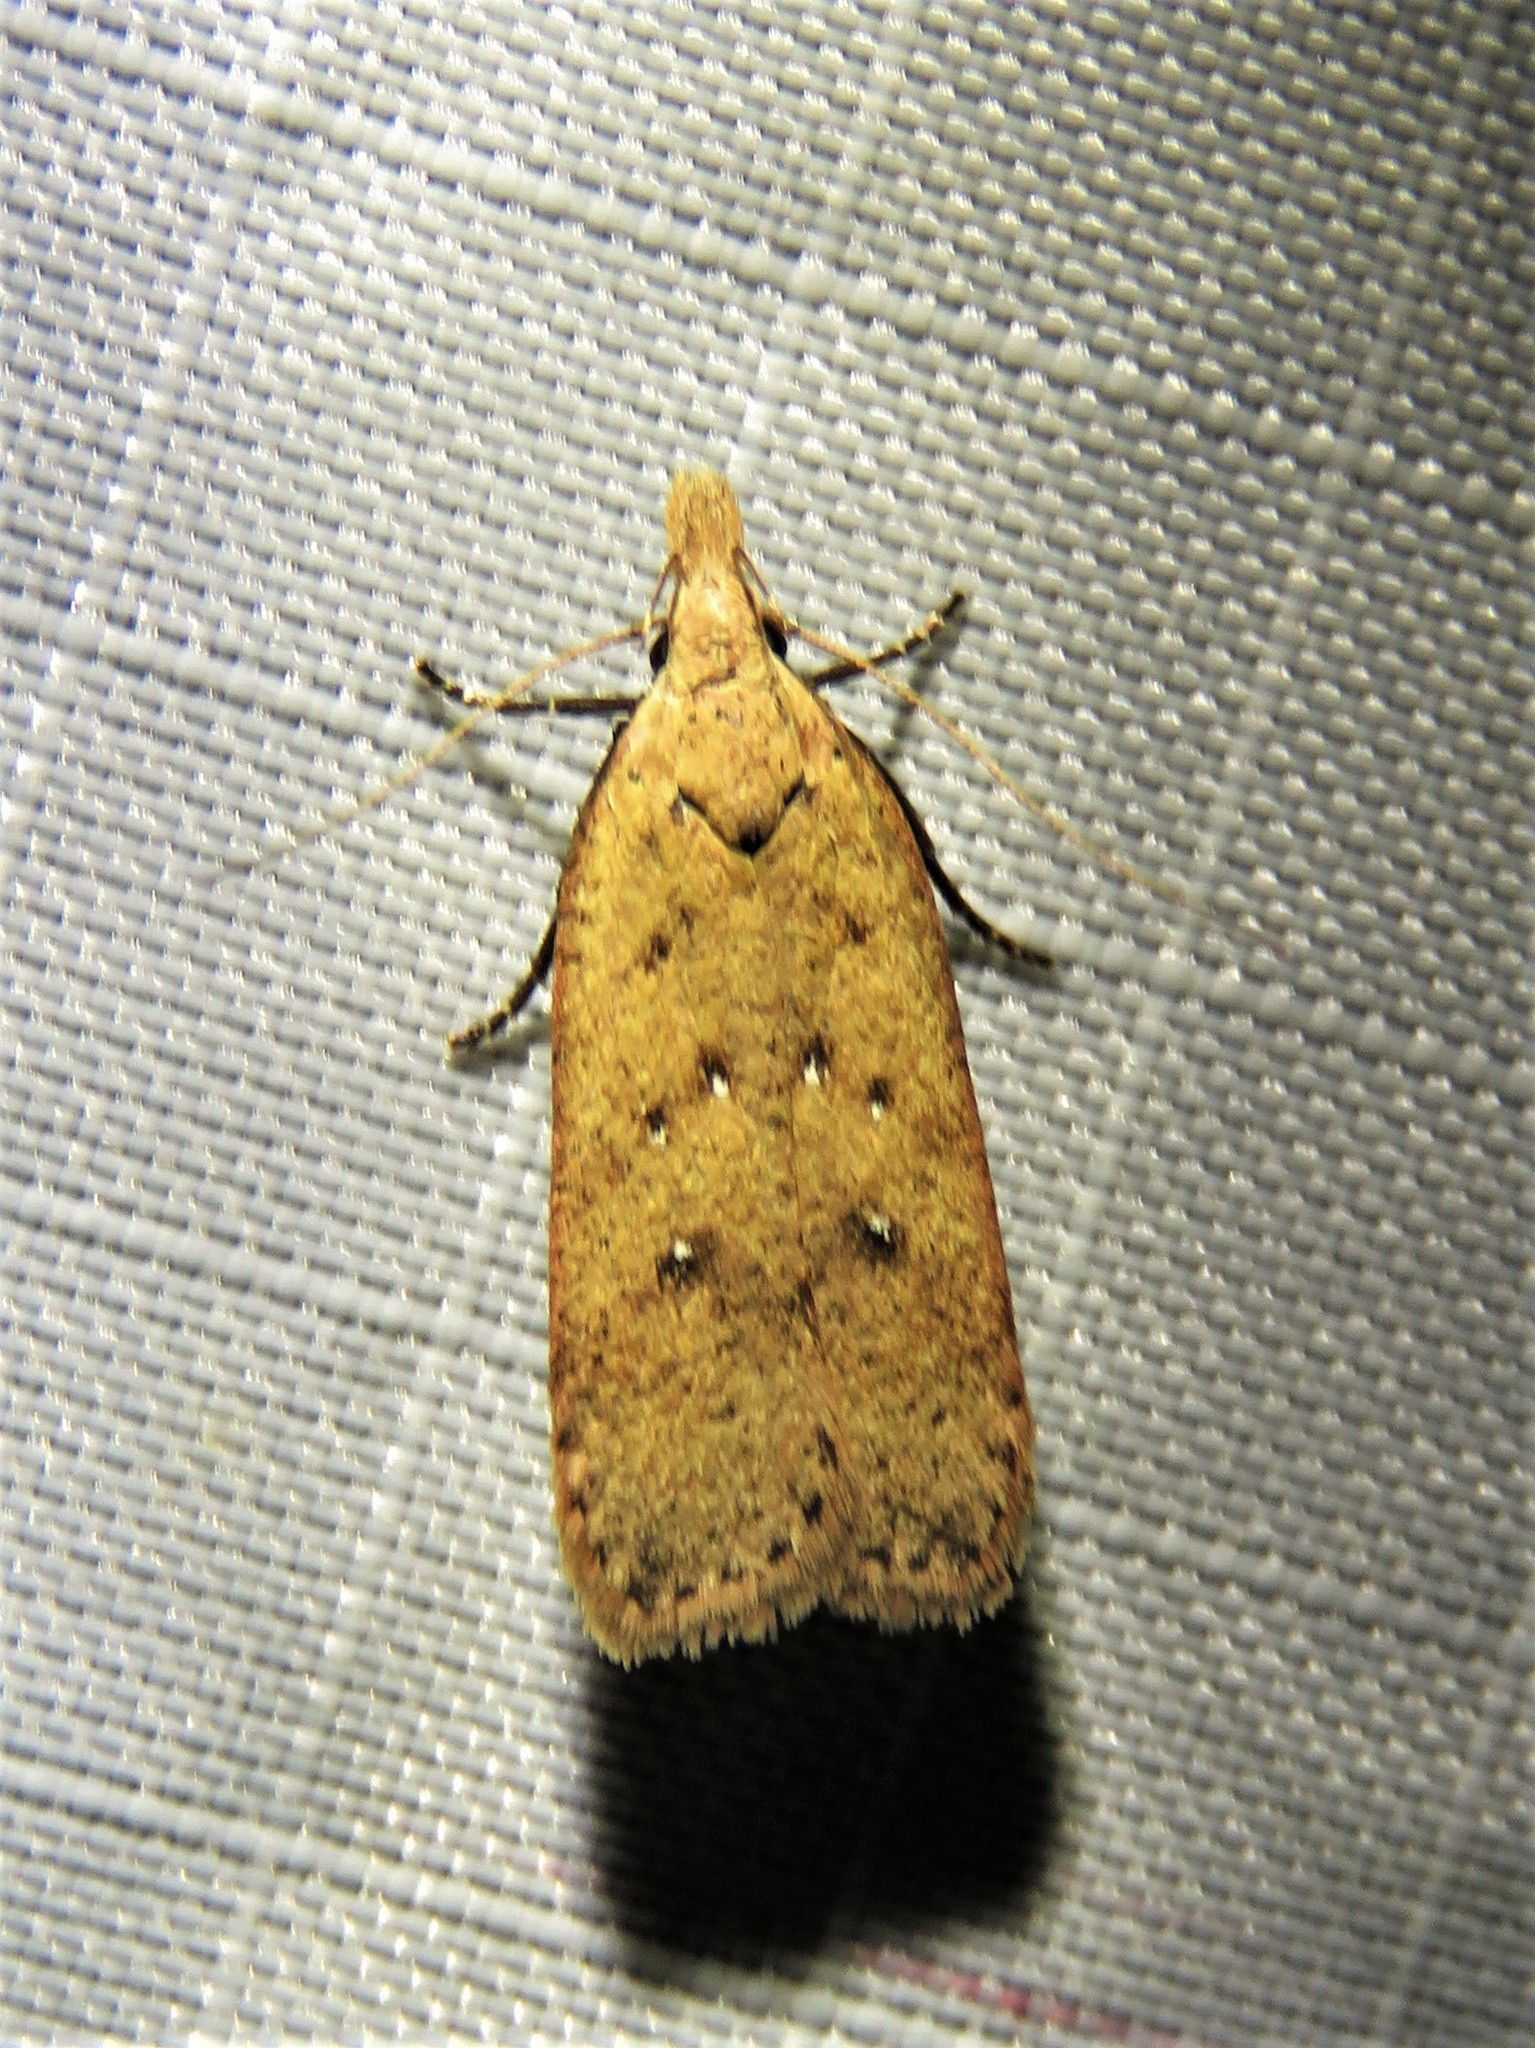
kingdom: Animalia
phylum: Arthropoda
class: Insecta
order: Lepidoptera
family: Gelechiidae
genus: Dichomeris
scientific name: Dichomeris ventrellus
